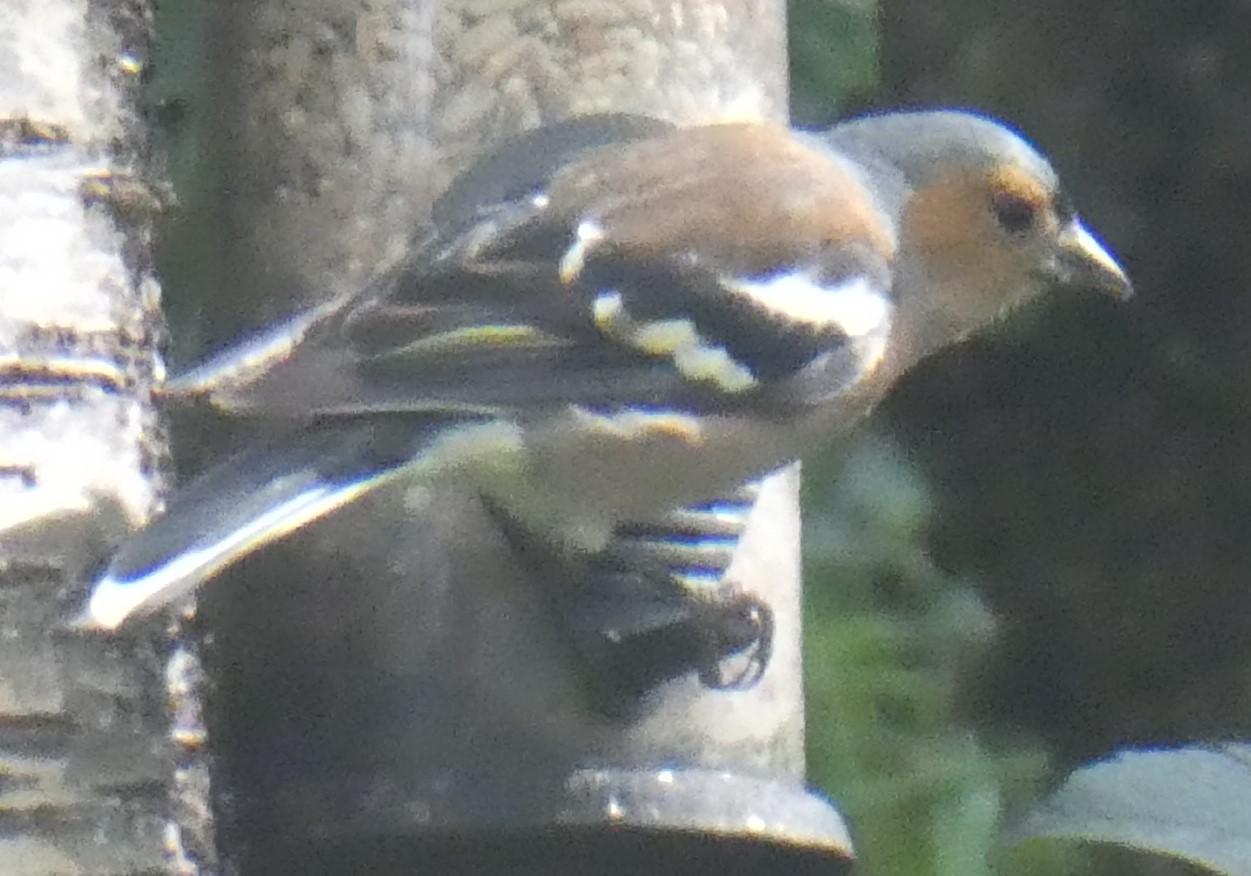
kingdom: Animalia
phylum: Chordata
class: Aves
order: Passeriformes
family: Fringillidae
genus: Fringilla
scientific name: Fringilla coelebs
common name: Common chaffinch
